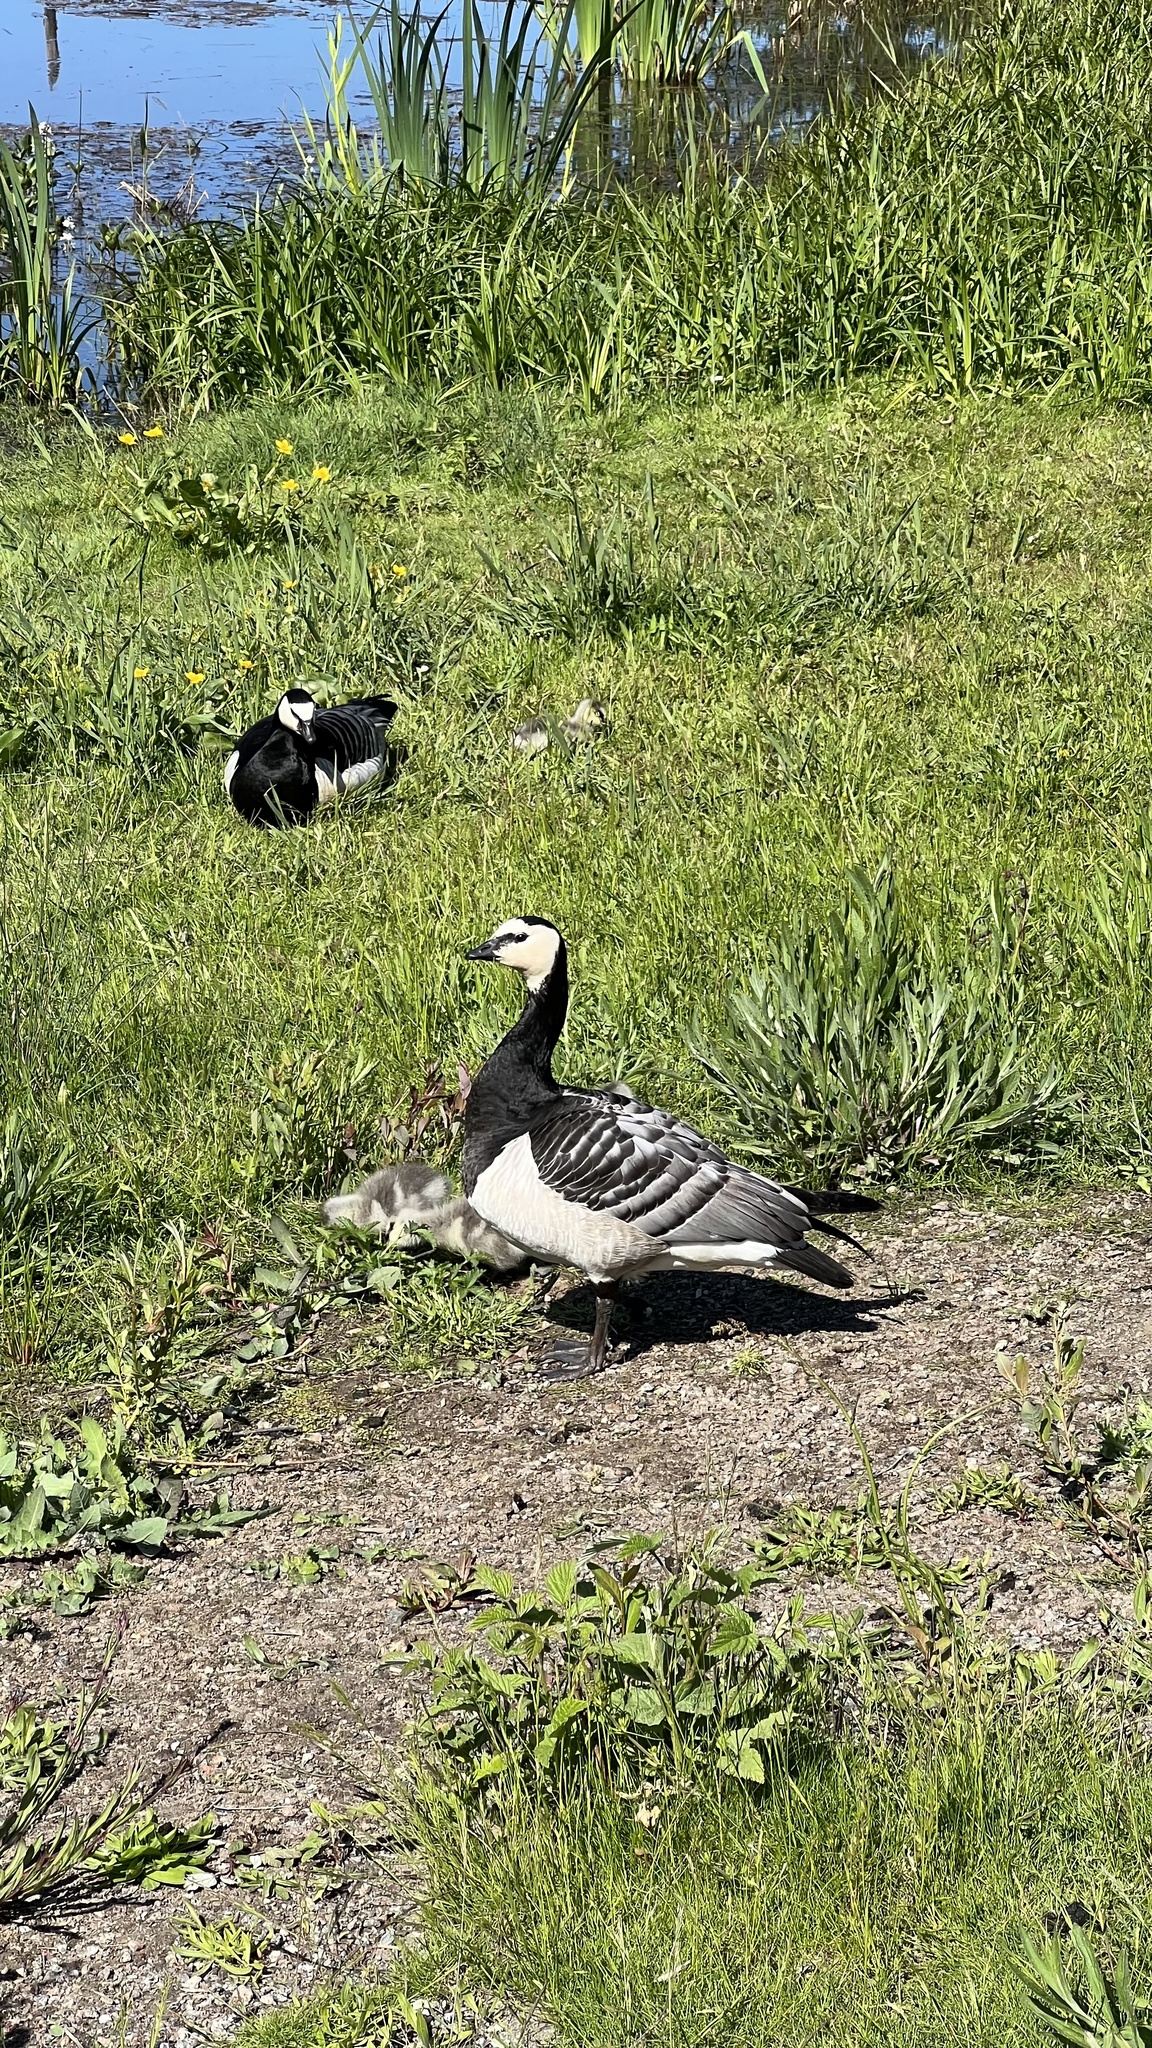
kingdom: Animalia
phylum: Chordata
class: Aves
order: Anseriformes
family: Anatidae
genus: Branta
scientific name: Branta leucopsis
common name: Barnacle goose
